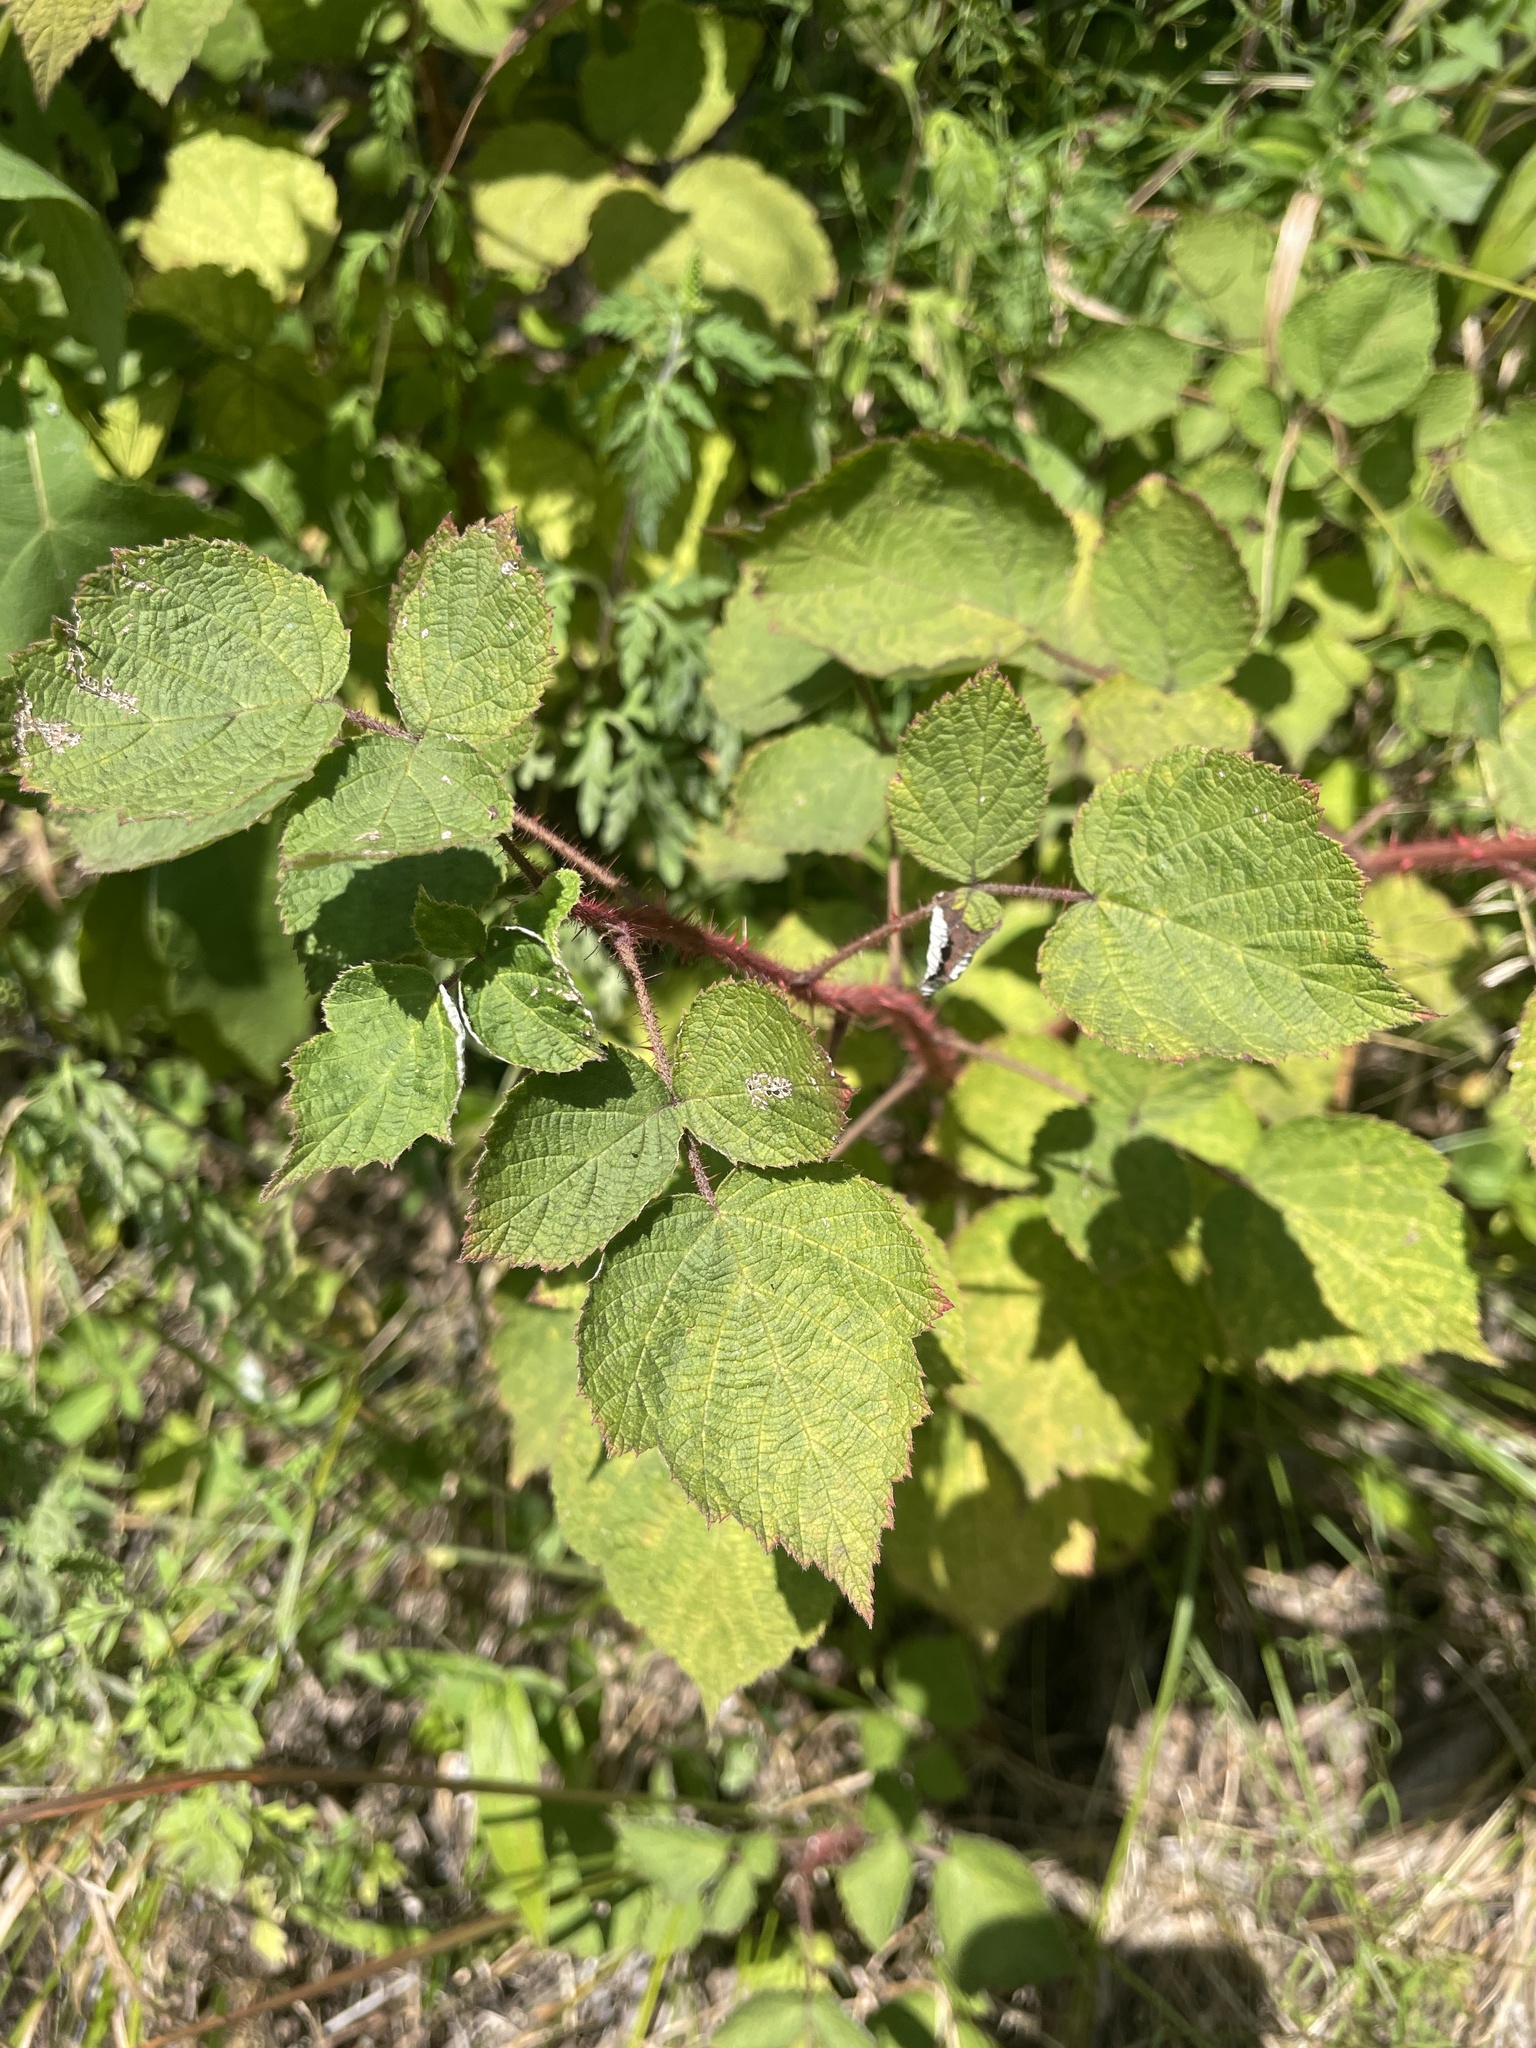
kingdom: Plantae
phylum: Tracheophyta
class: Magnoliopsida
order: Rosales
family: Rosaceae
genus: Rubus
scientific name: Rubus phoenicolasius
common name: Japanese wineberry
